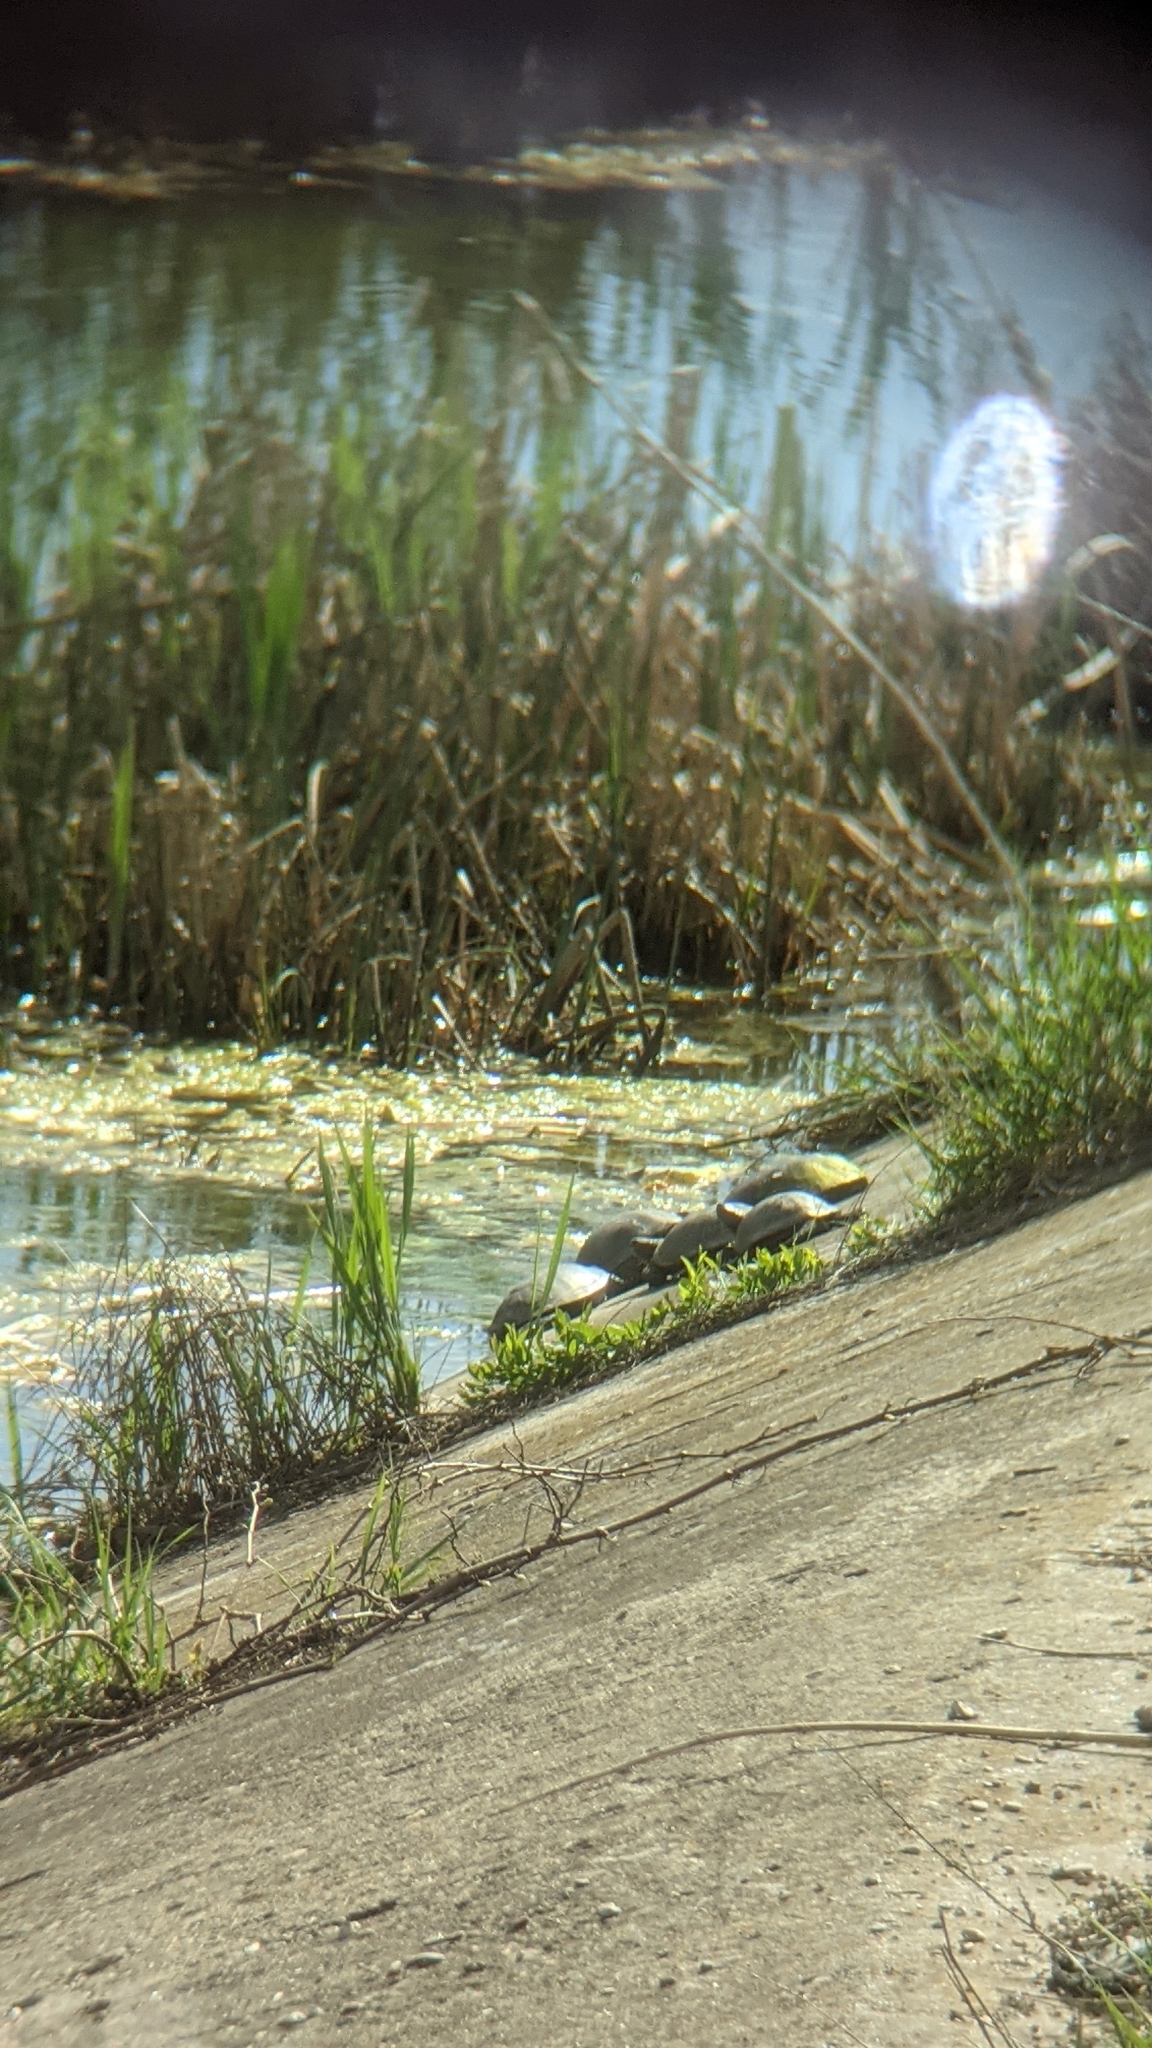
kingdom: Animalia
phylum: Chordata
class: Testudines
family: Emydidae
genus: Emys
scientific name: Emys orbicularis
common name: European pond turtle
